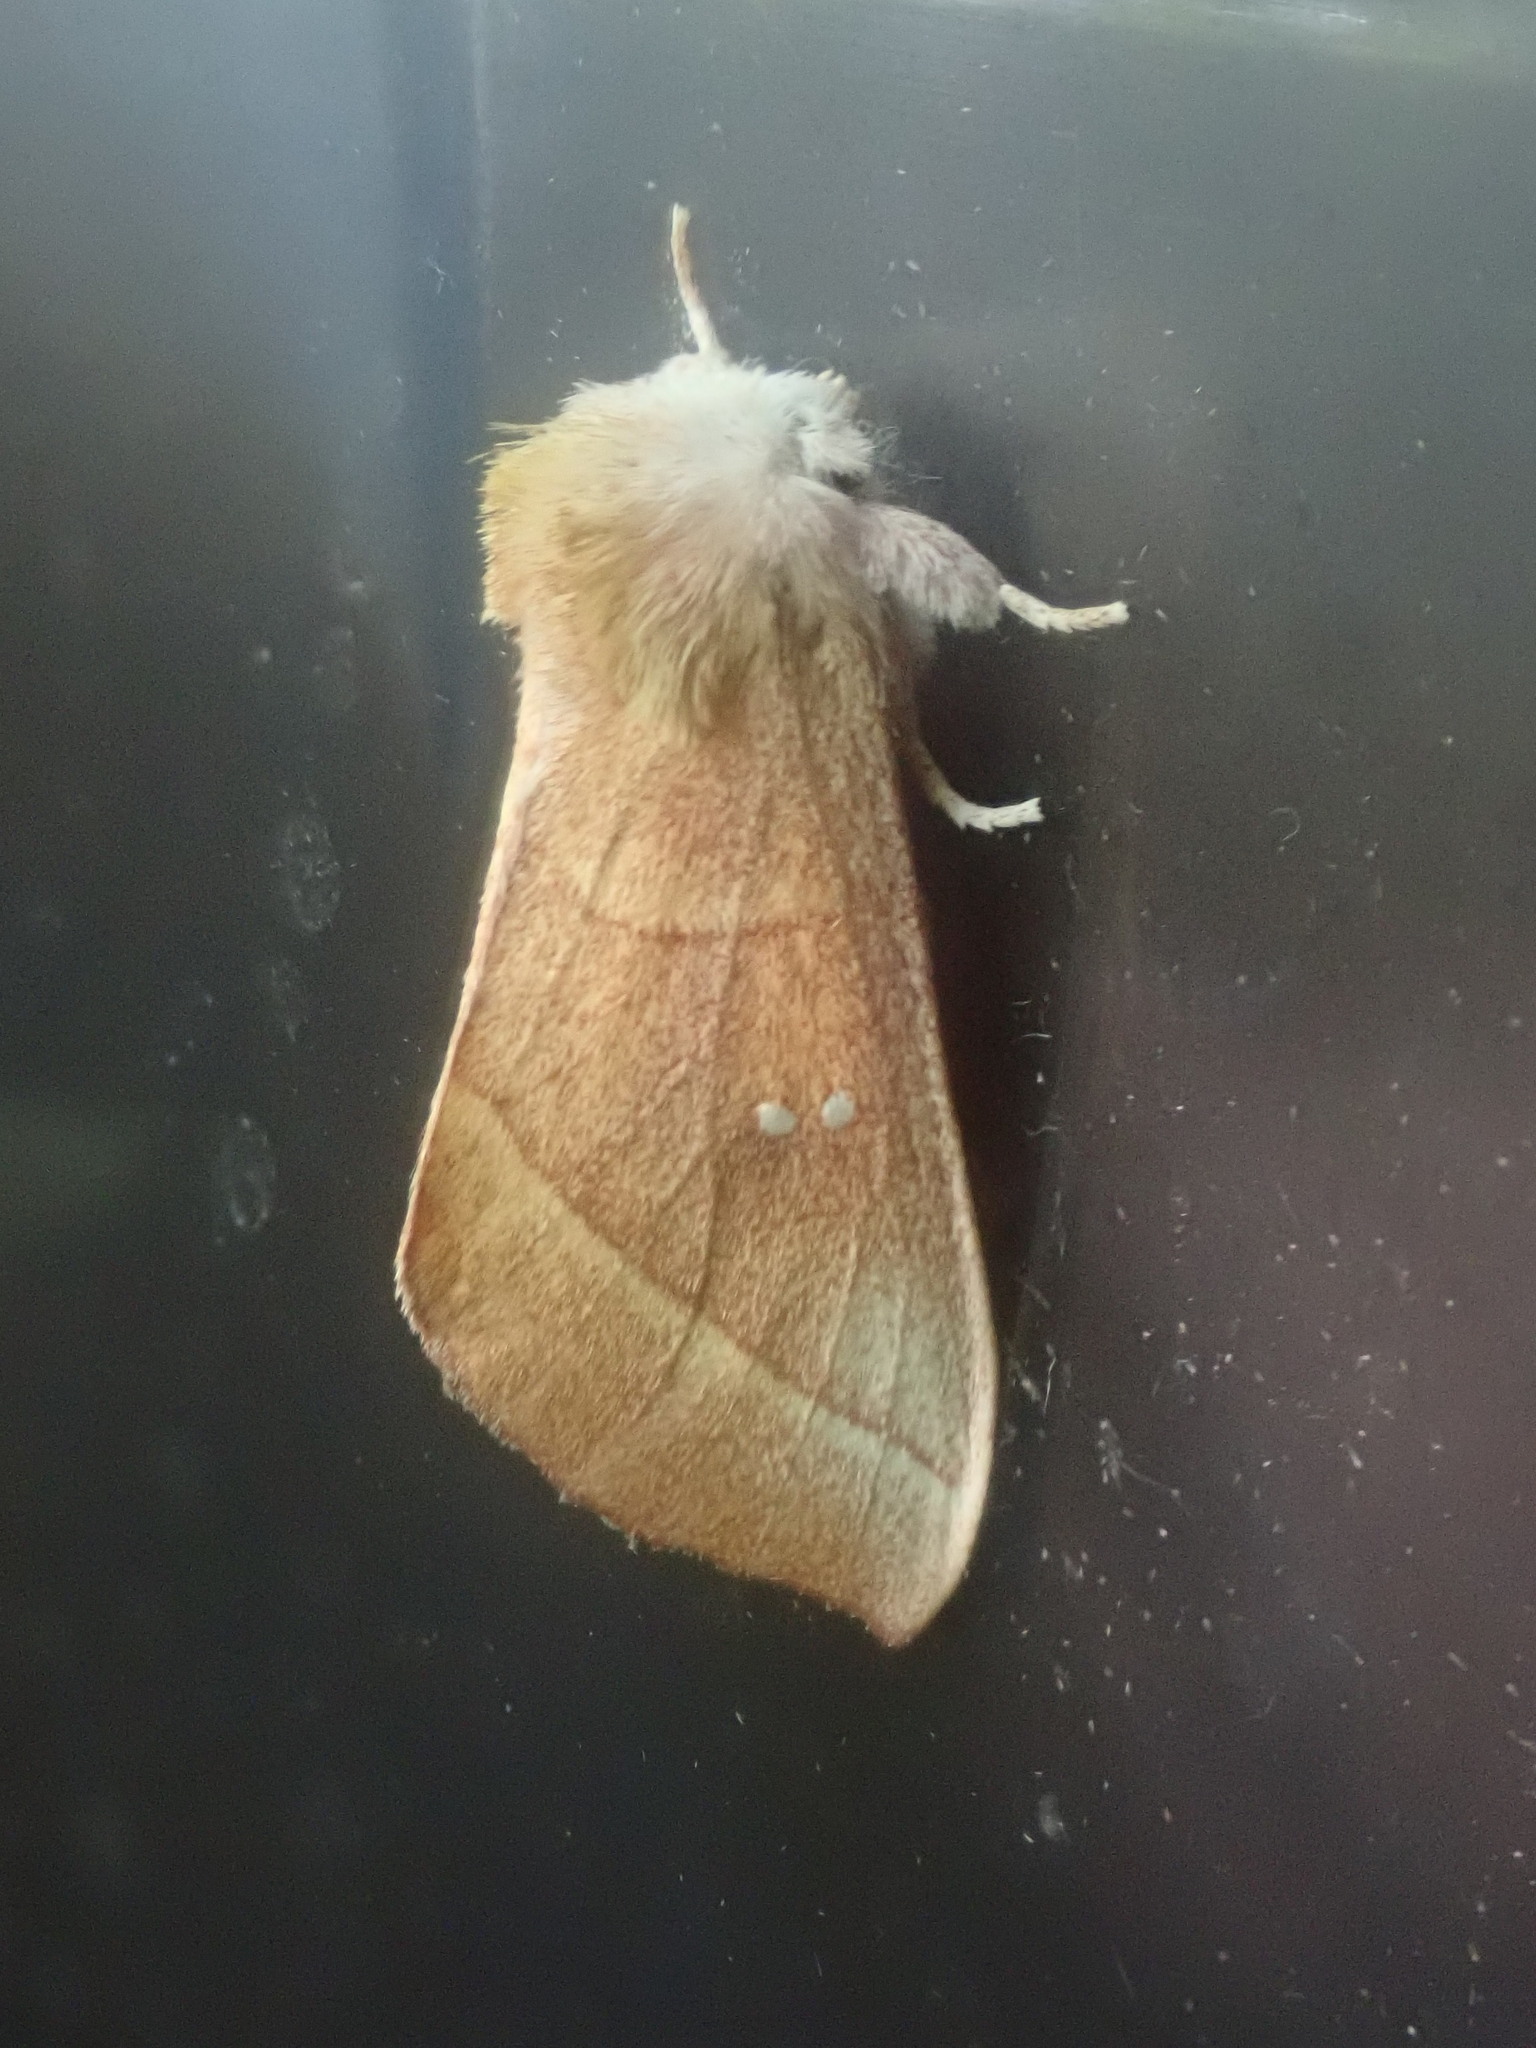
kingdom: Animalia
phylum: Arthropoda
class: Insecta
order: Lepidoptera
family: Notodontidae
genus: Nadata
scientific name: Nadata gibbosa
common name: White-dotted prominent
